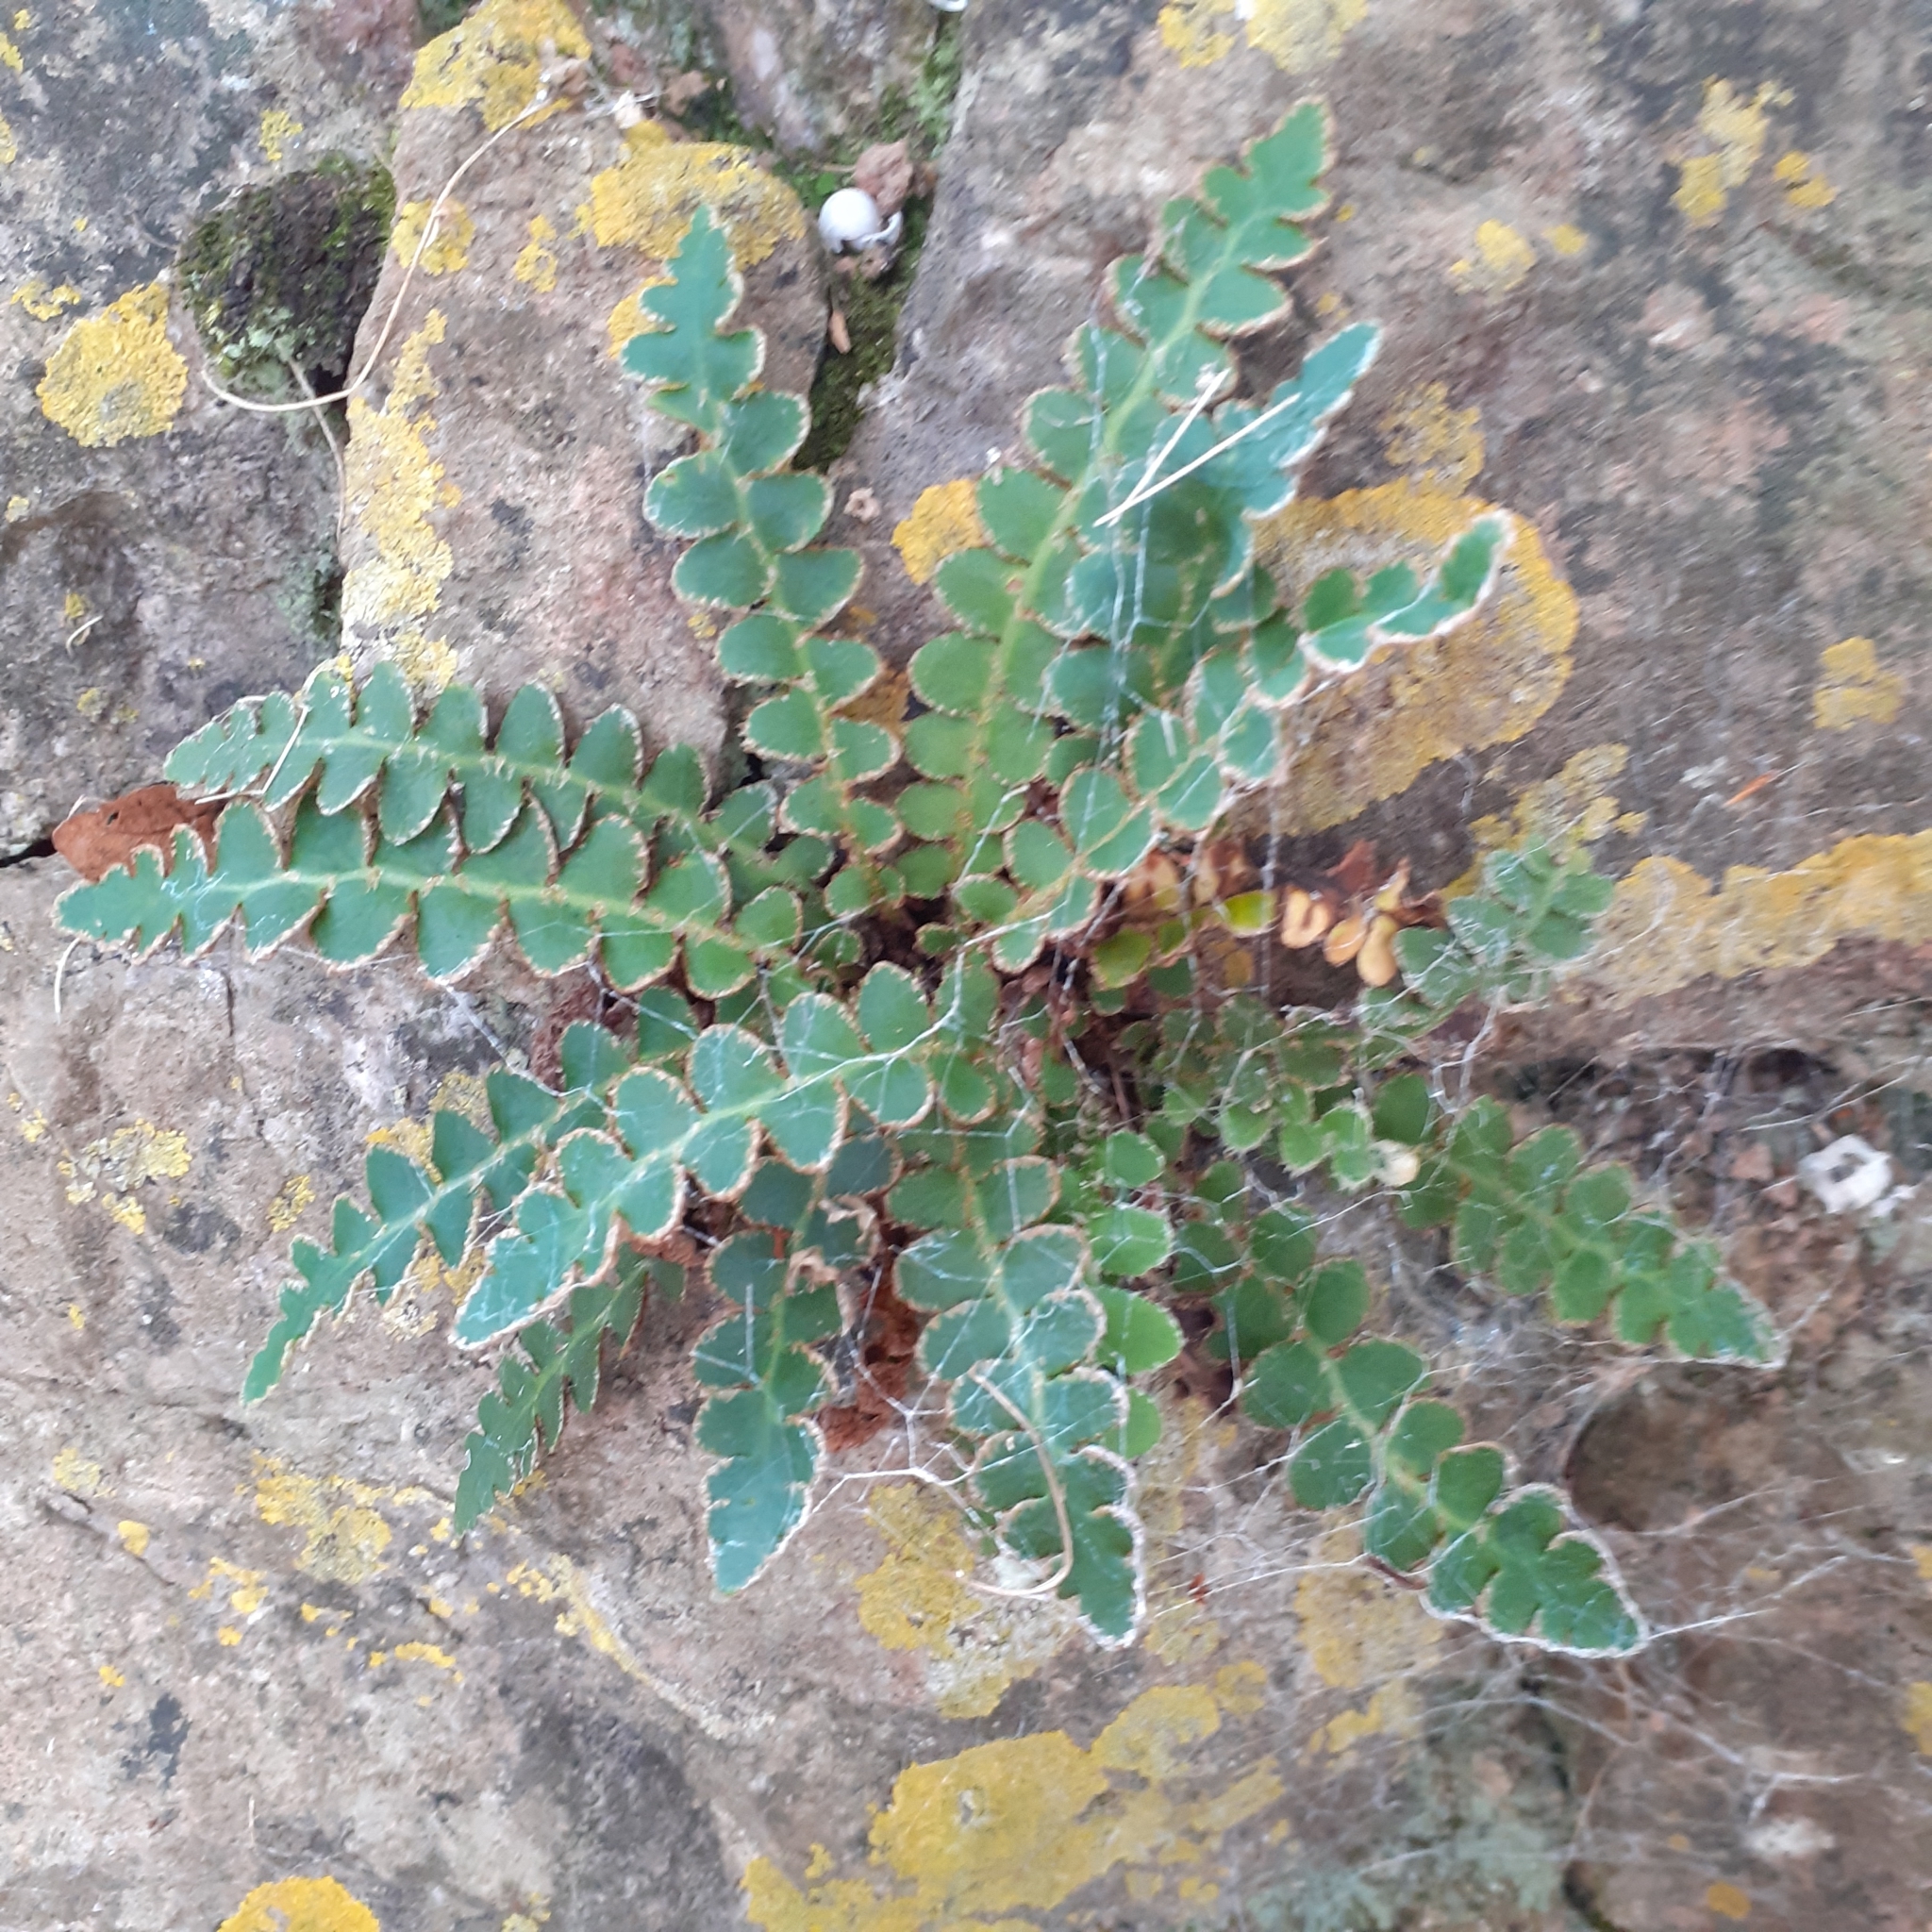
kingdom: Plantae
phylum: Tracheophyta
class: Polypodiopsida
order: Polypodiales
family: Aspleniaceae
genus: Asplenium
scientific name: Asplenium ceterach
